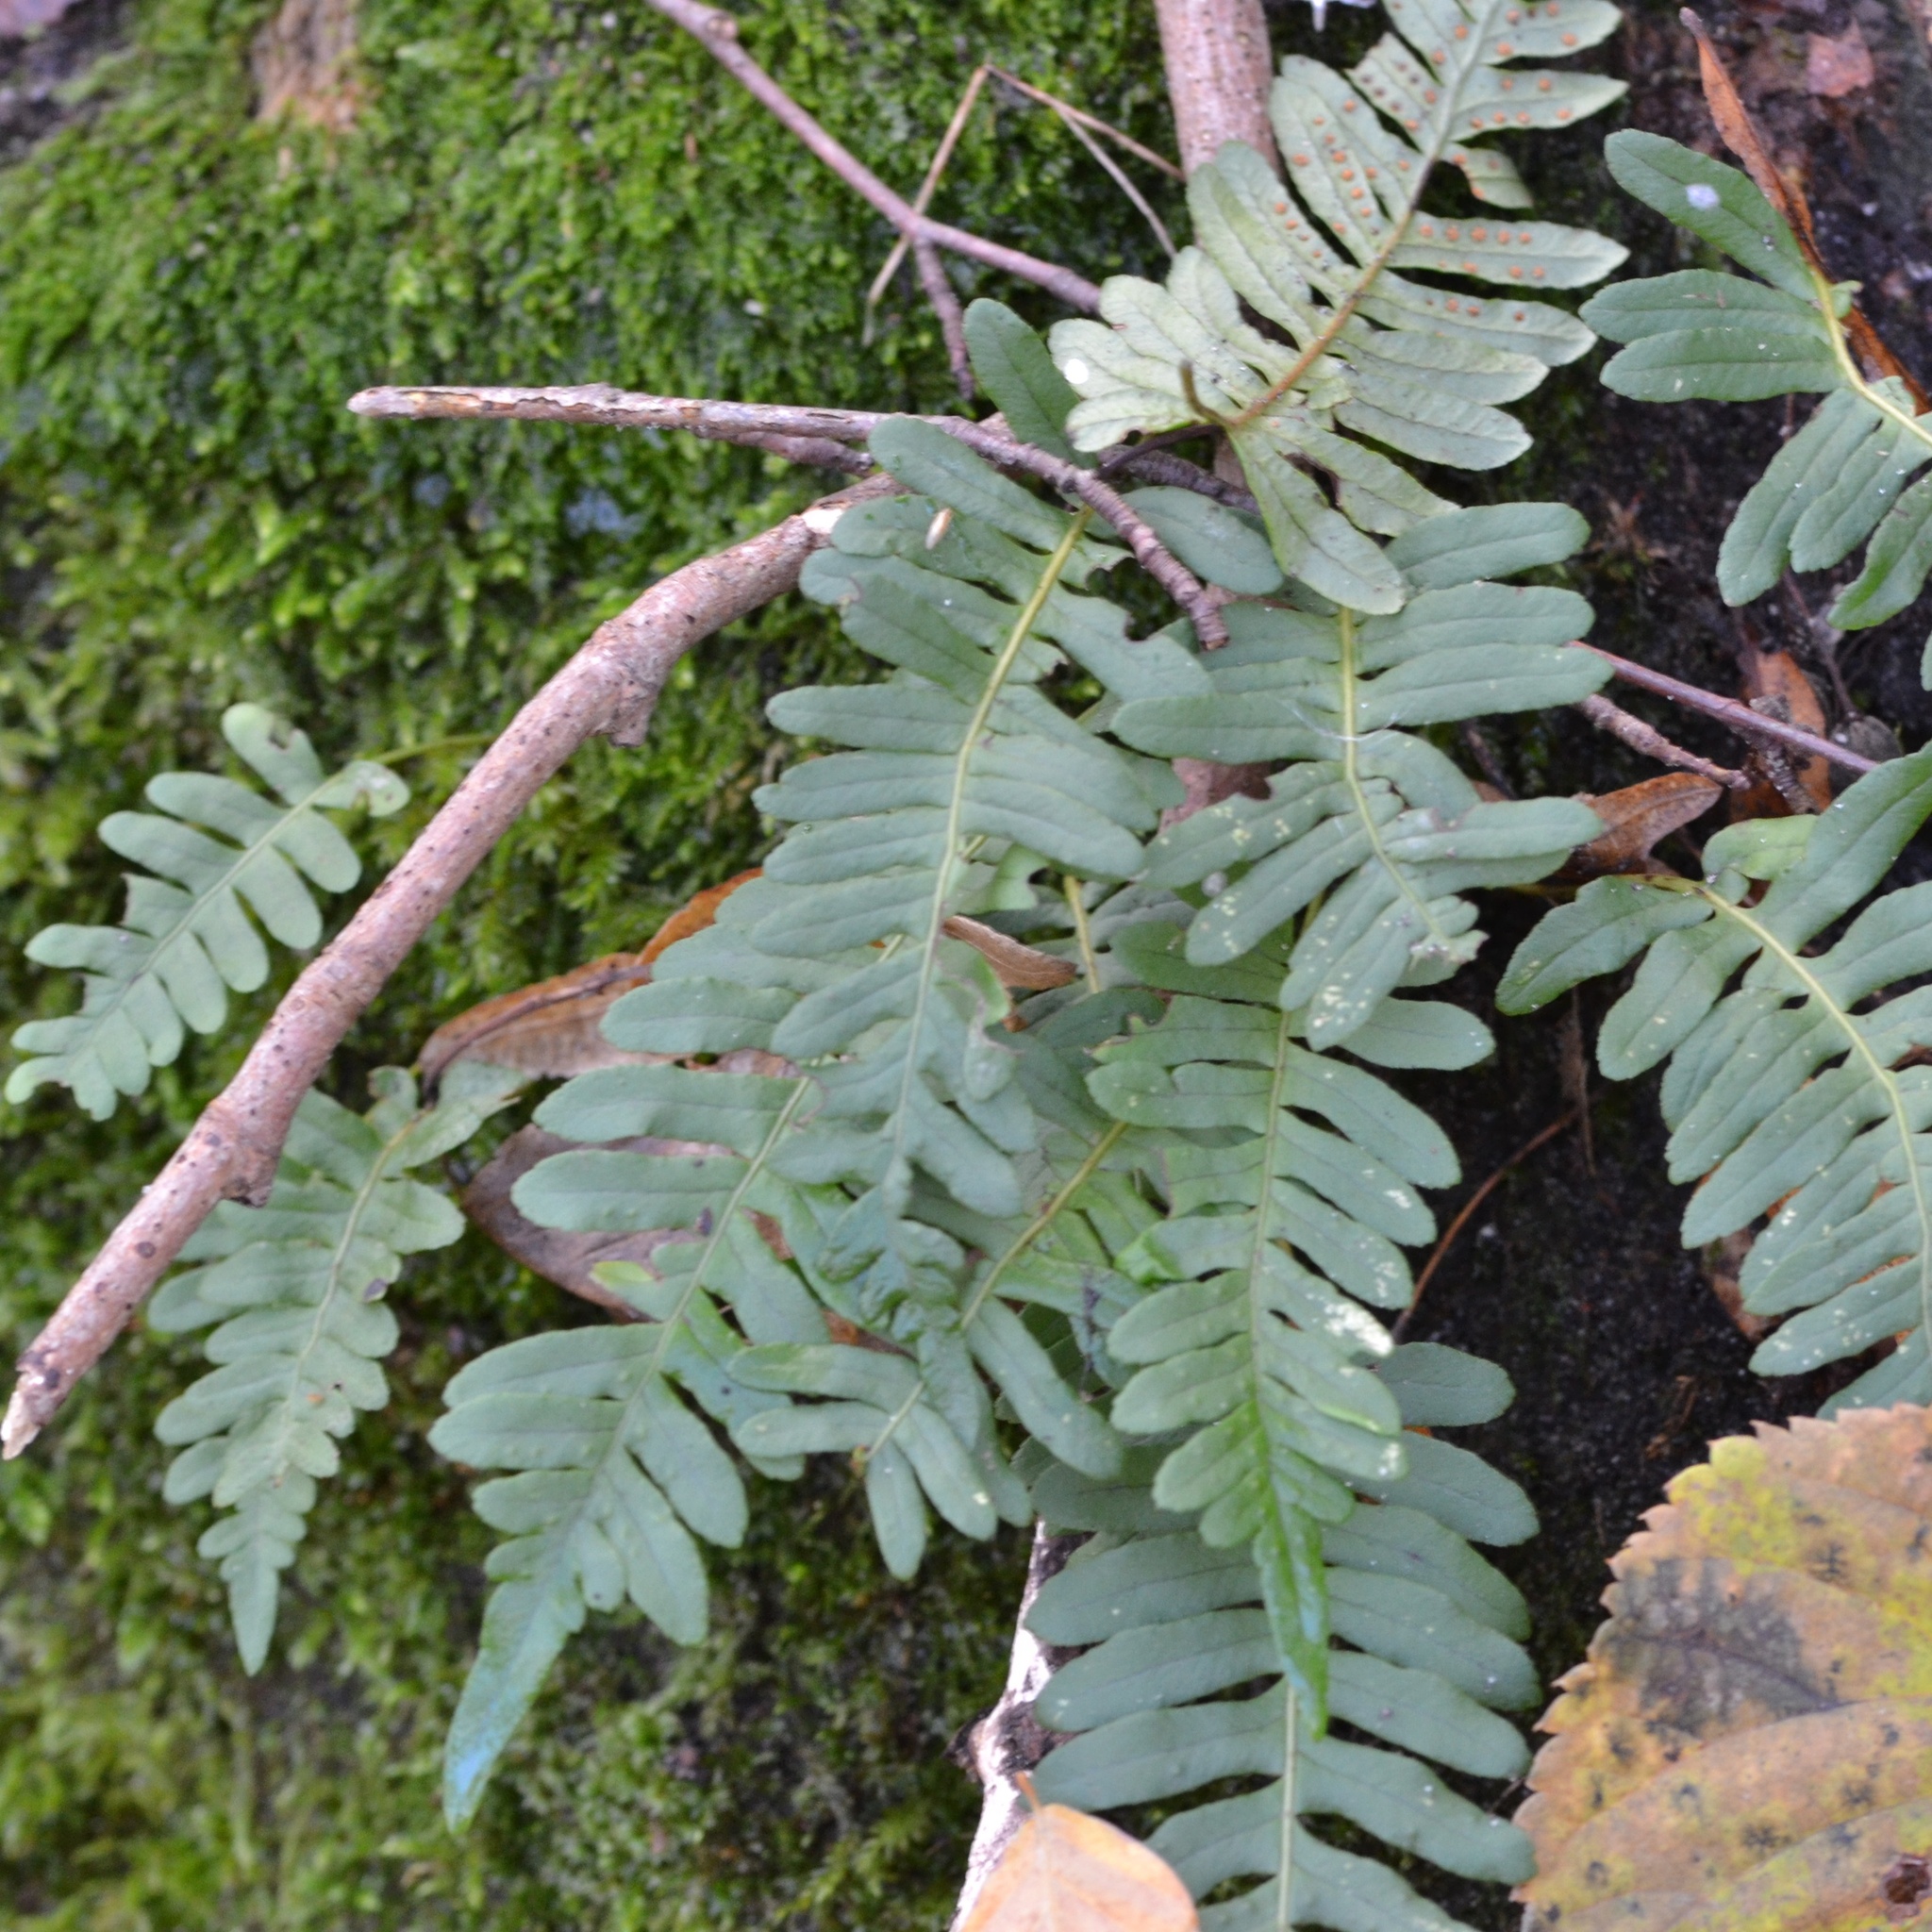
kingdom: Plantae
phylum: Tracheophyta
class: Polypodiopsida
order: Polypodiales
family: Polypodiaceae
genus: Polypodium
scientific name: Polypodium vulgare
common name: Common polypody
